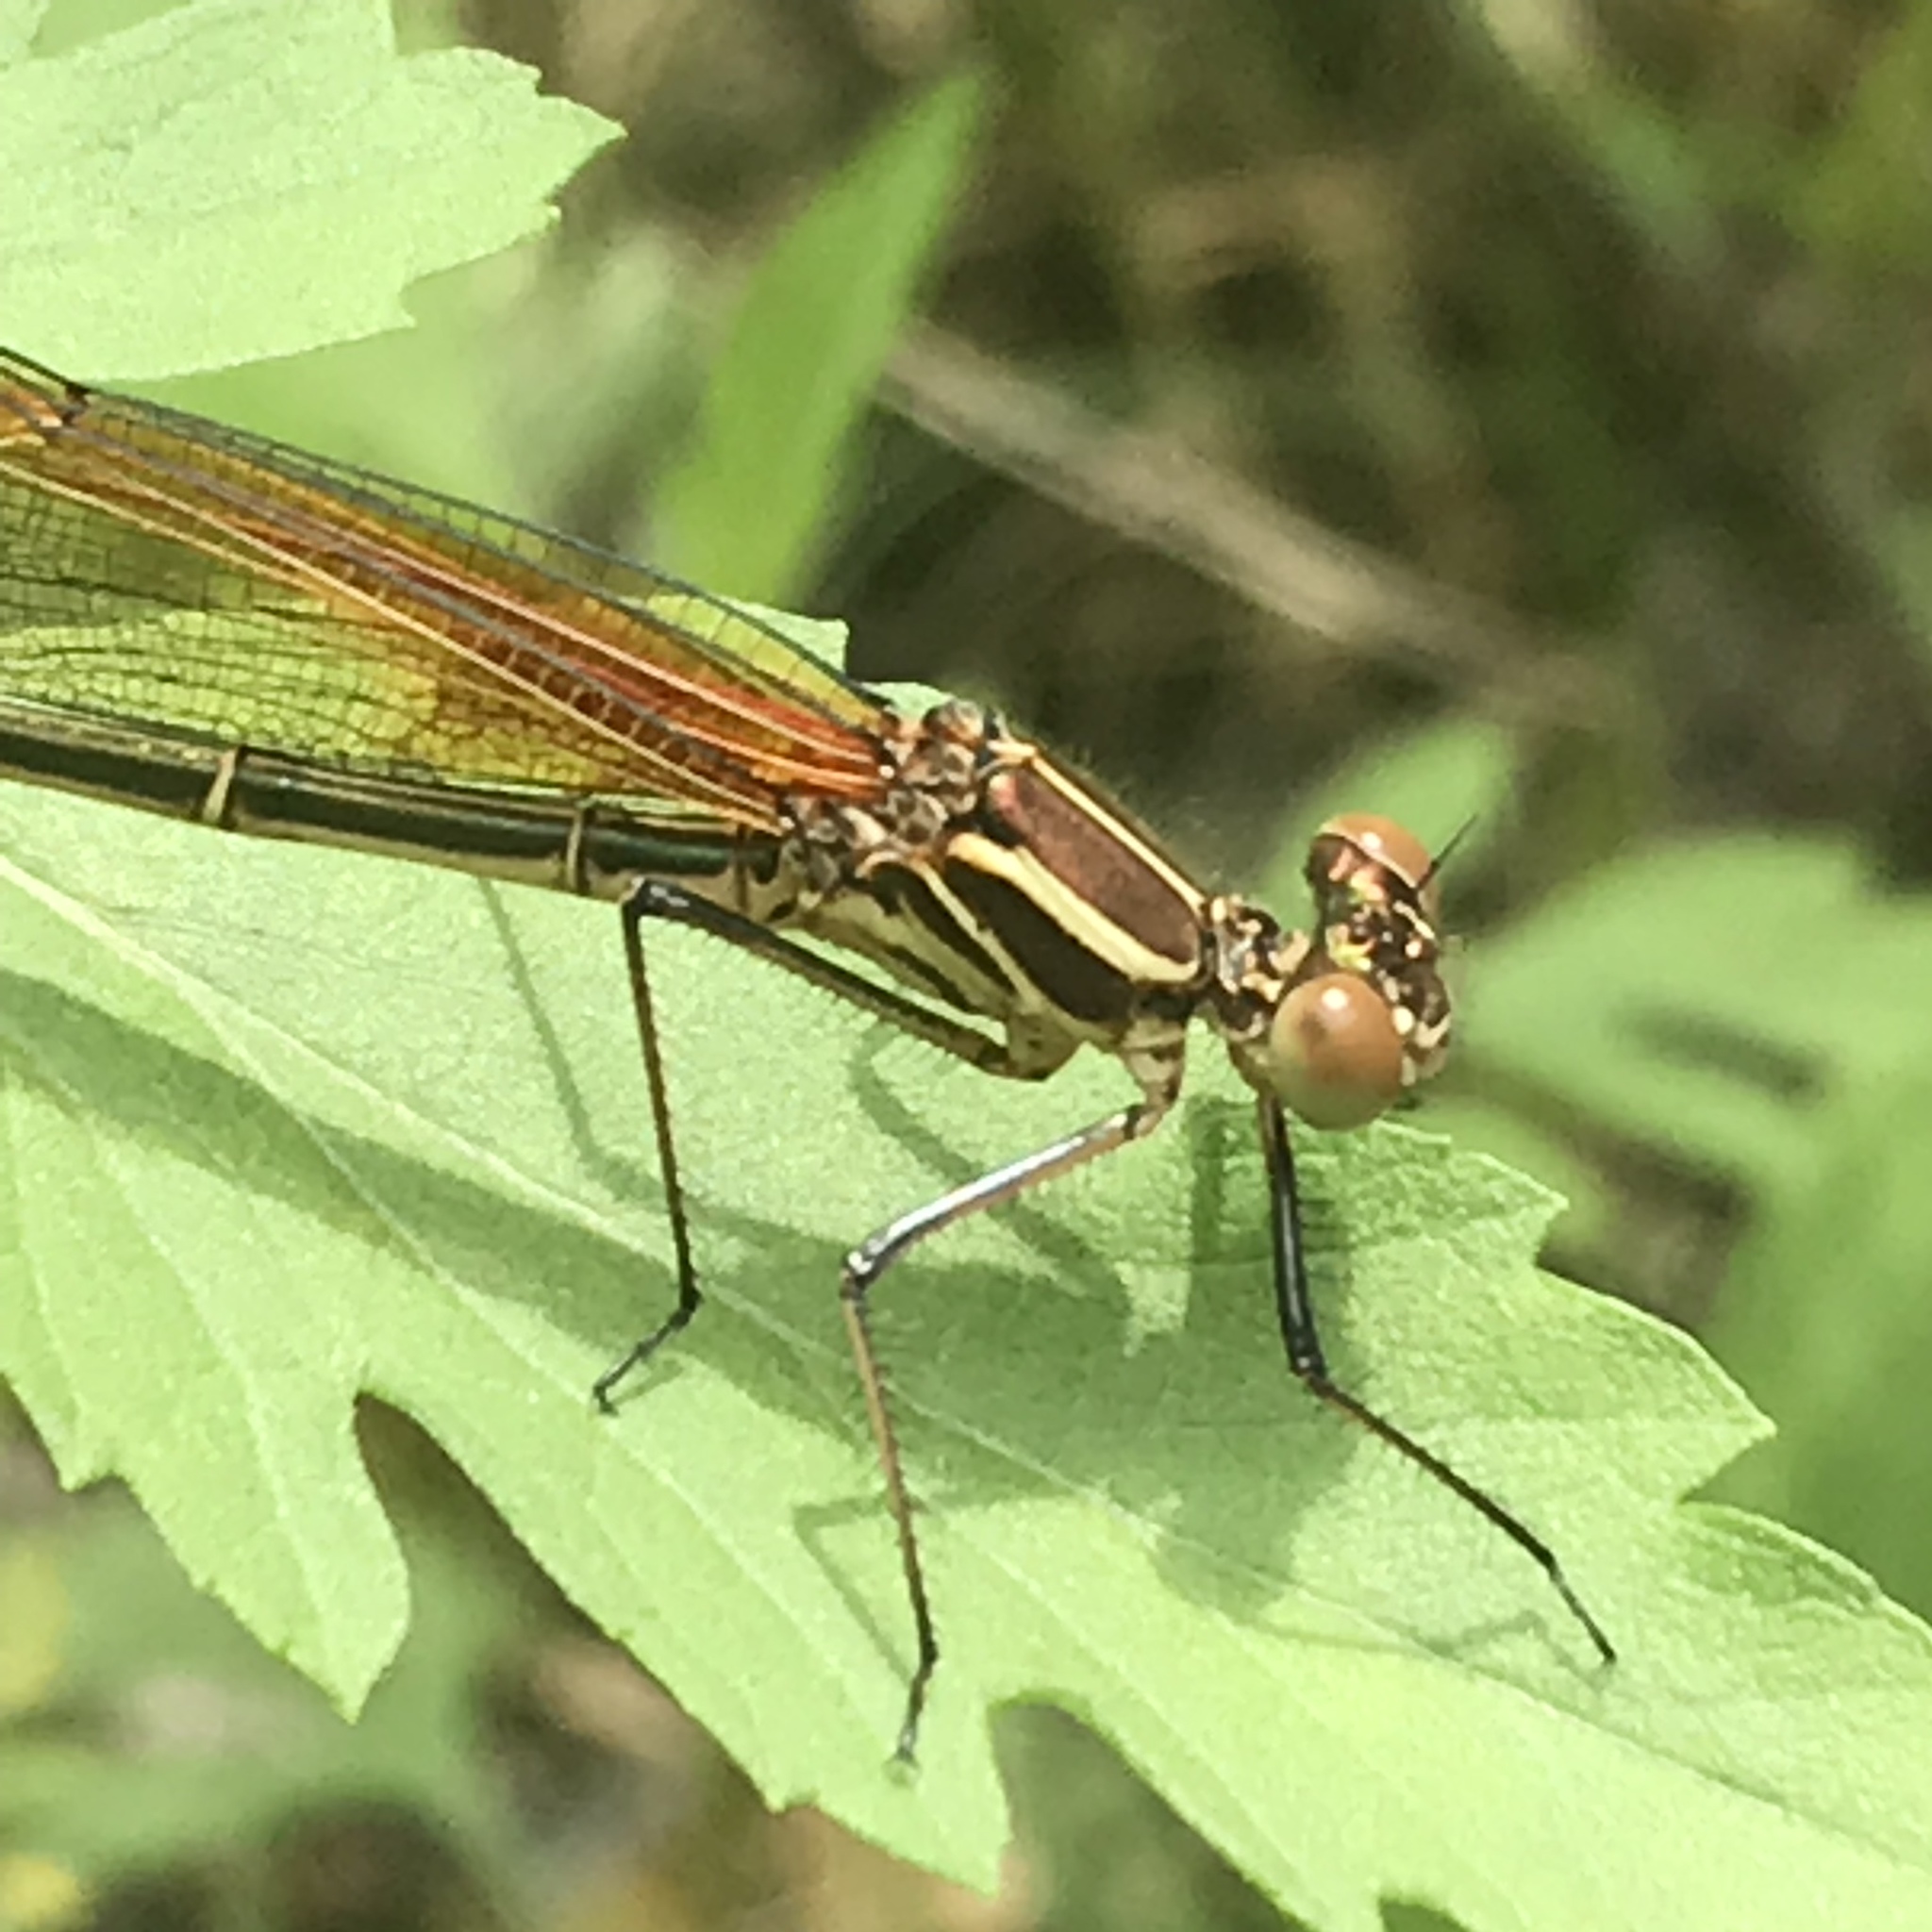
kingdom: Animalia
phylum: Arthropoda
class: Insecta
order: Odonata
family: Calopterygidae
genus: Hetaerina
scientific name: Hetaerina americana
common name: American rubyspot
